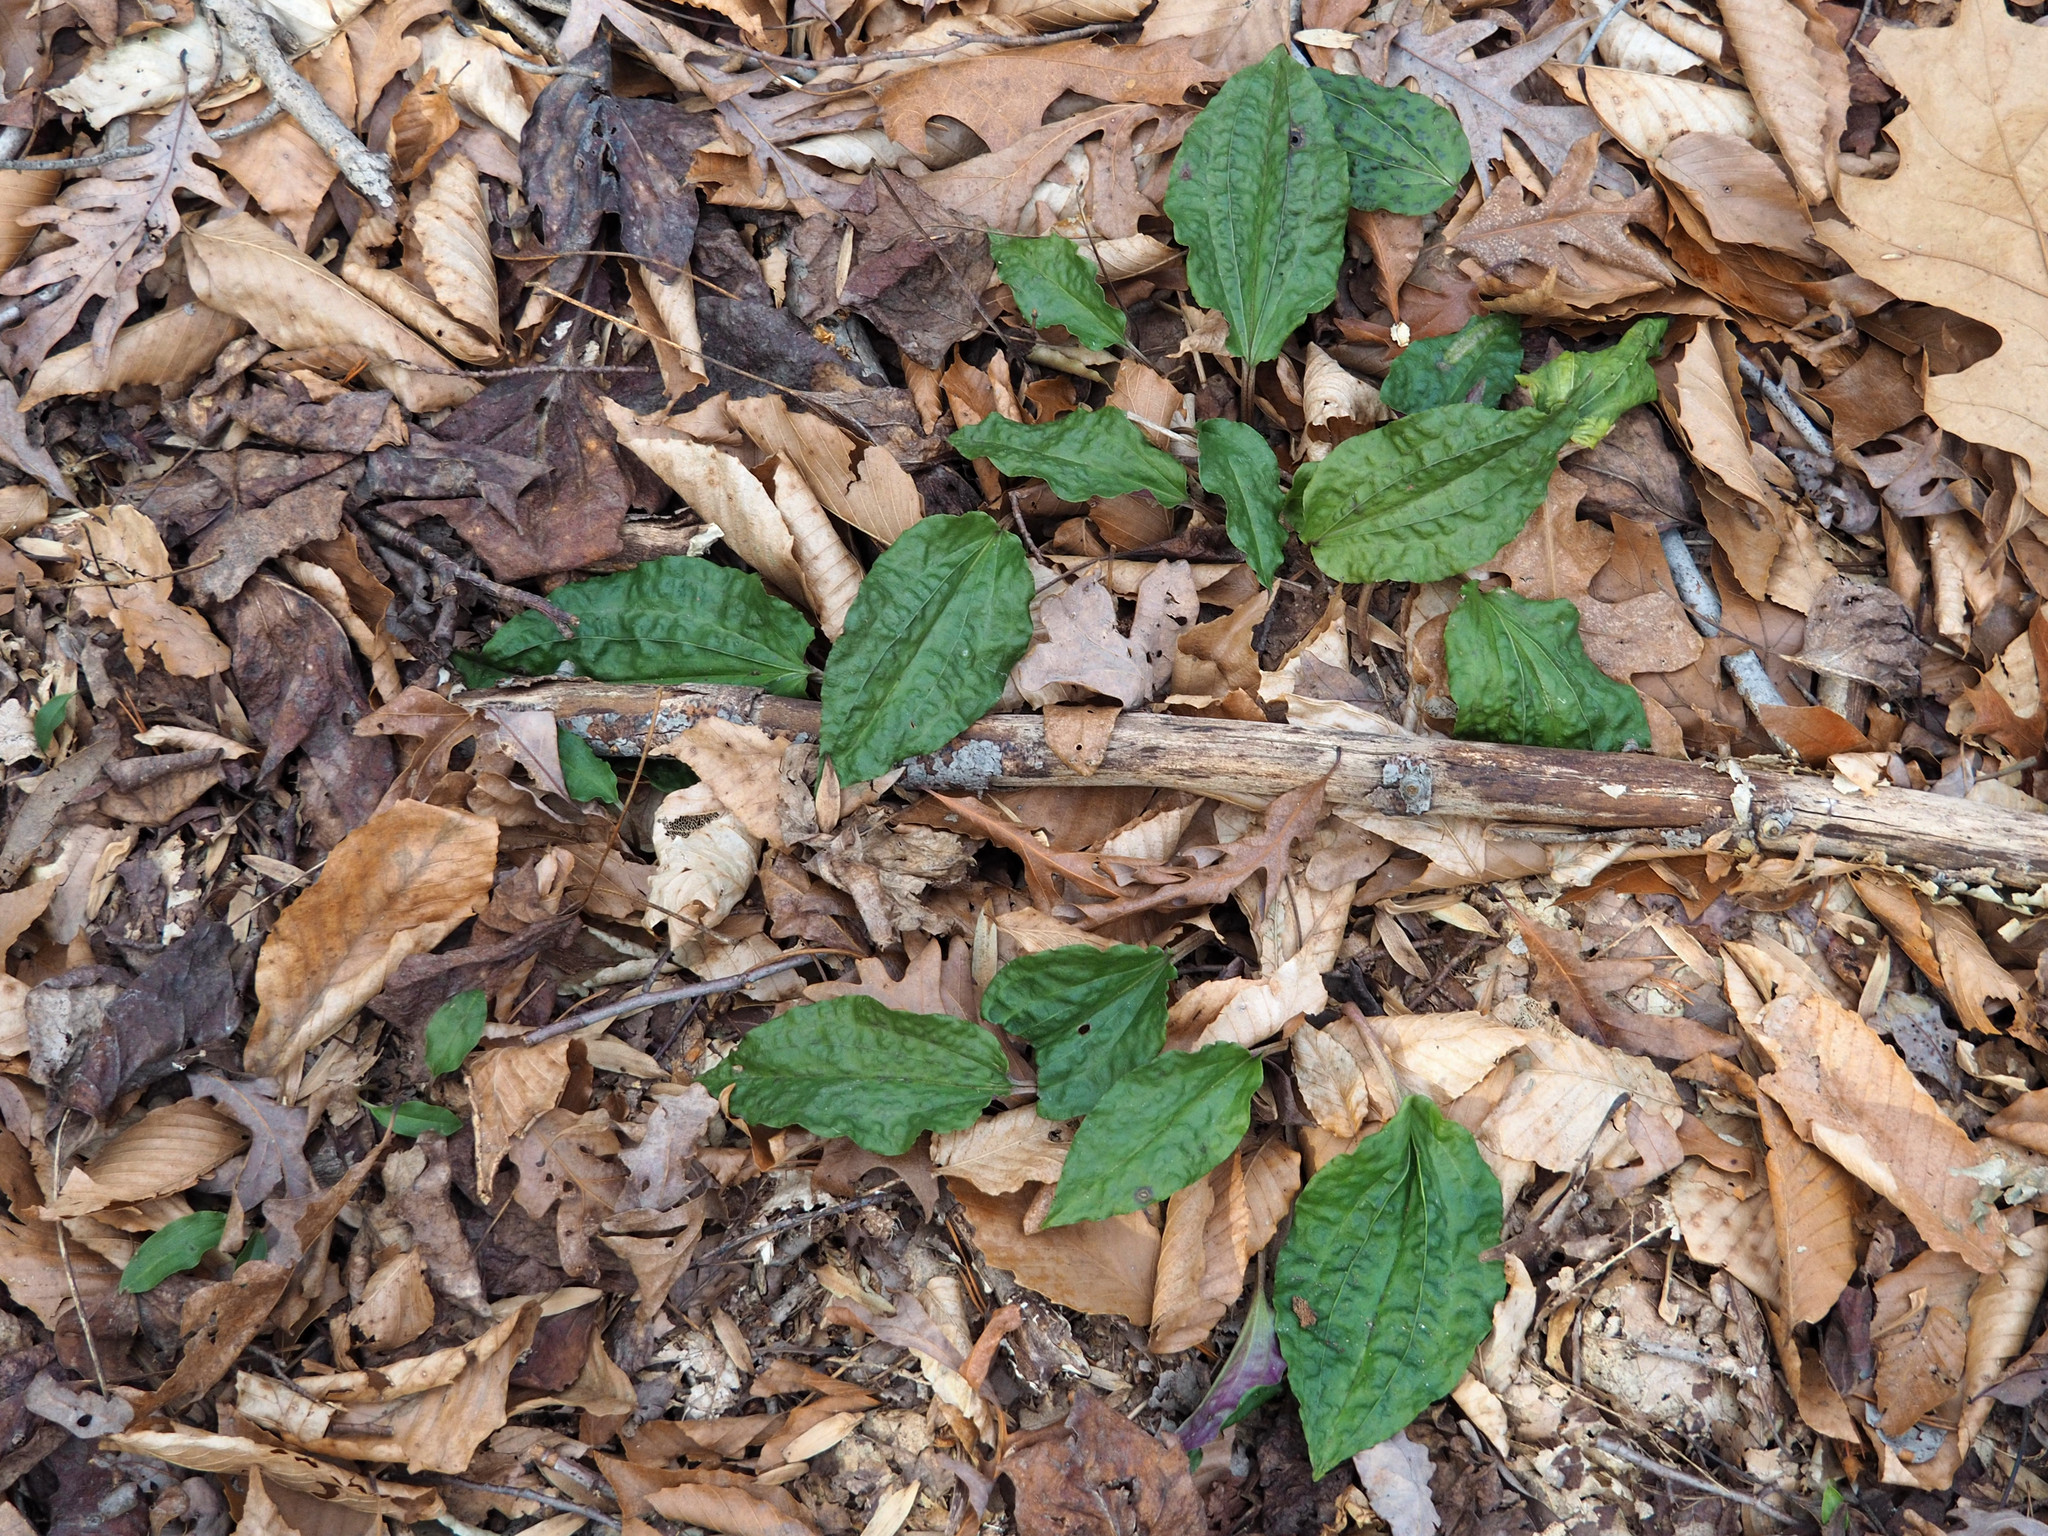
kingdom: Plantae
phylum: Tracheophyta
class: Liliopsida
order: Asparagales
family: Orchidaceae
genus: Tipularia
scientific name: Tipularia discolor
